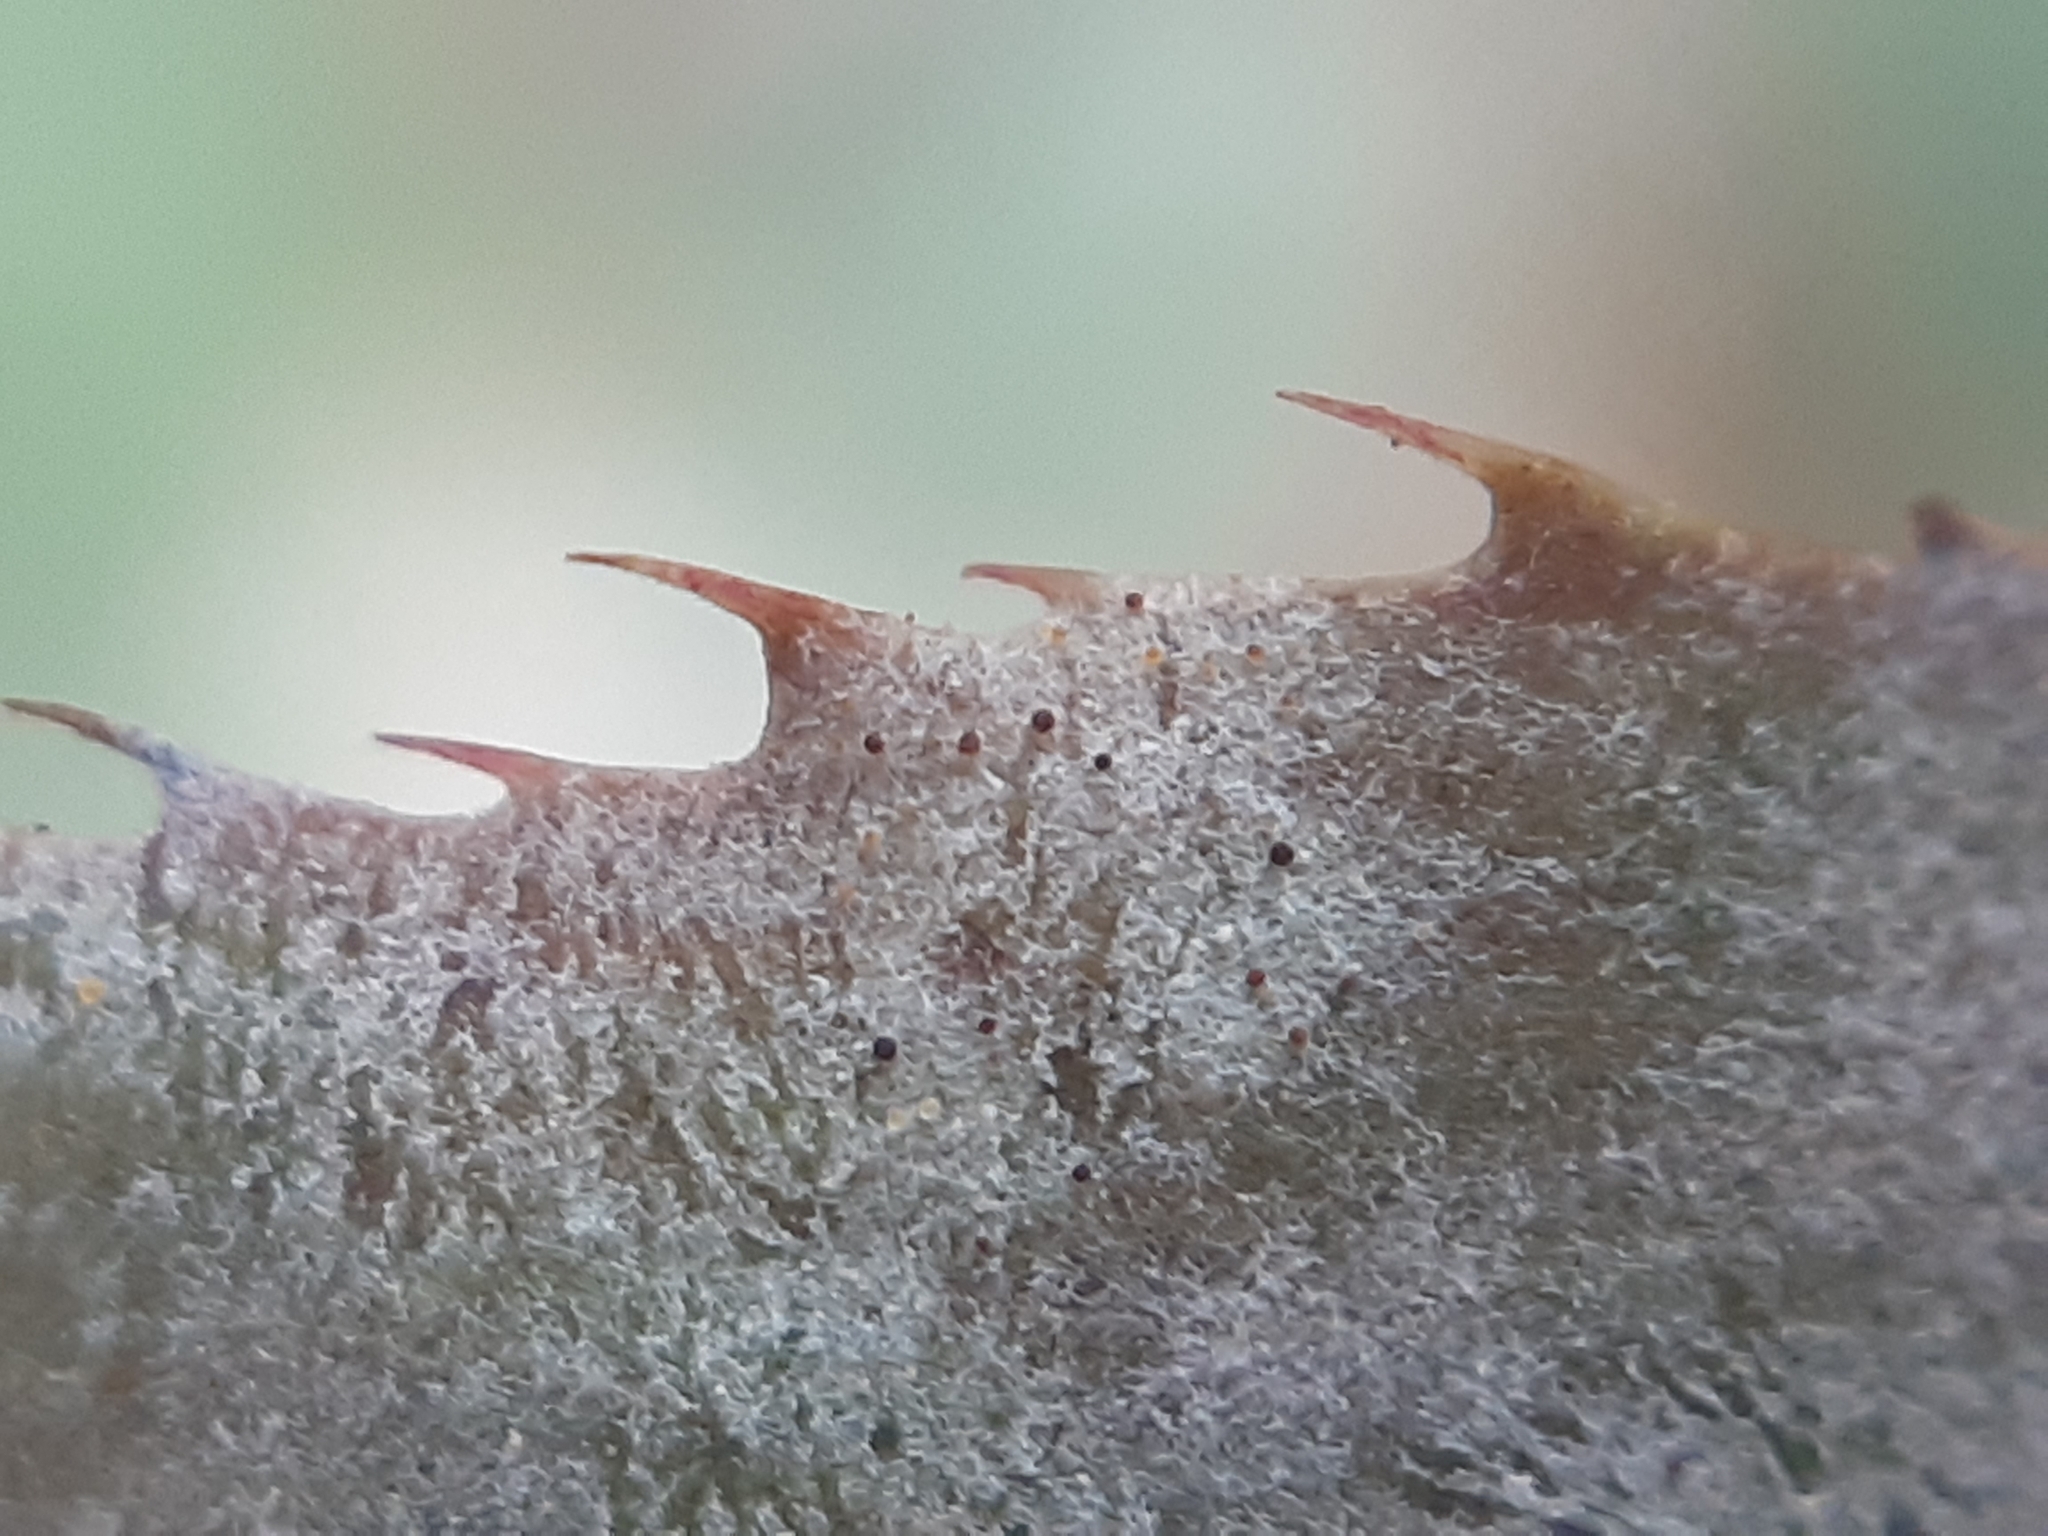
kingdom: Fungi
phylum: Ascomycota
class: Leotiomycetes
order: Helotiales
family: Erysiphaceae
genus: Erysiphe
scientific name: Erysiphe berberidis
